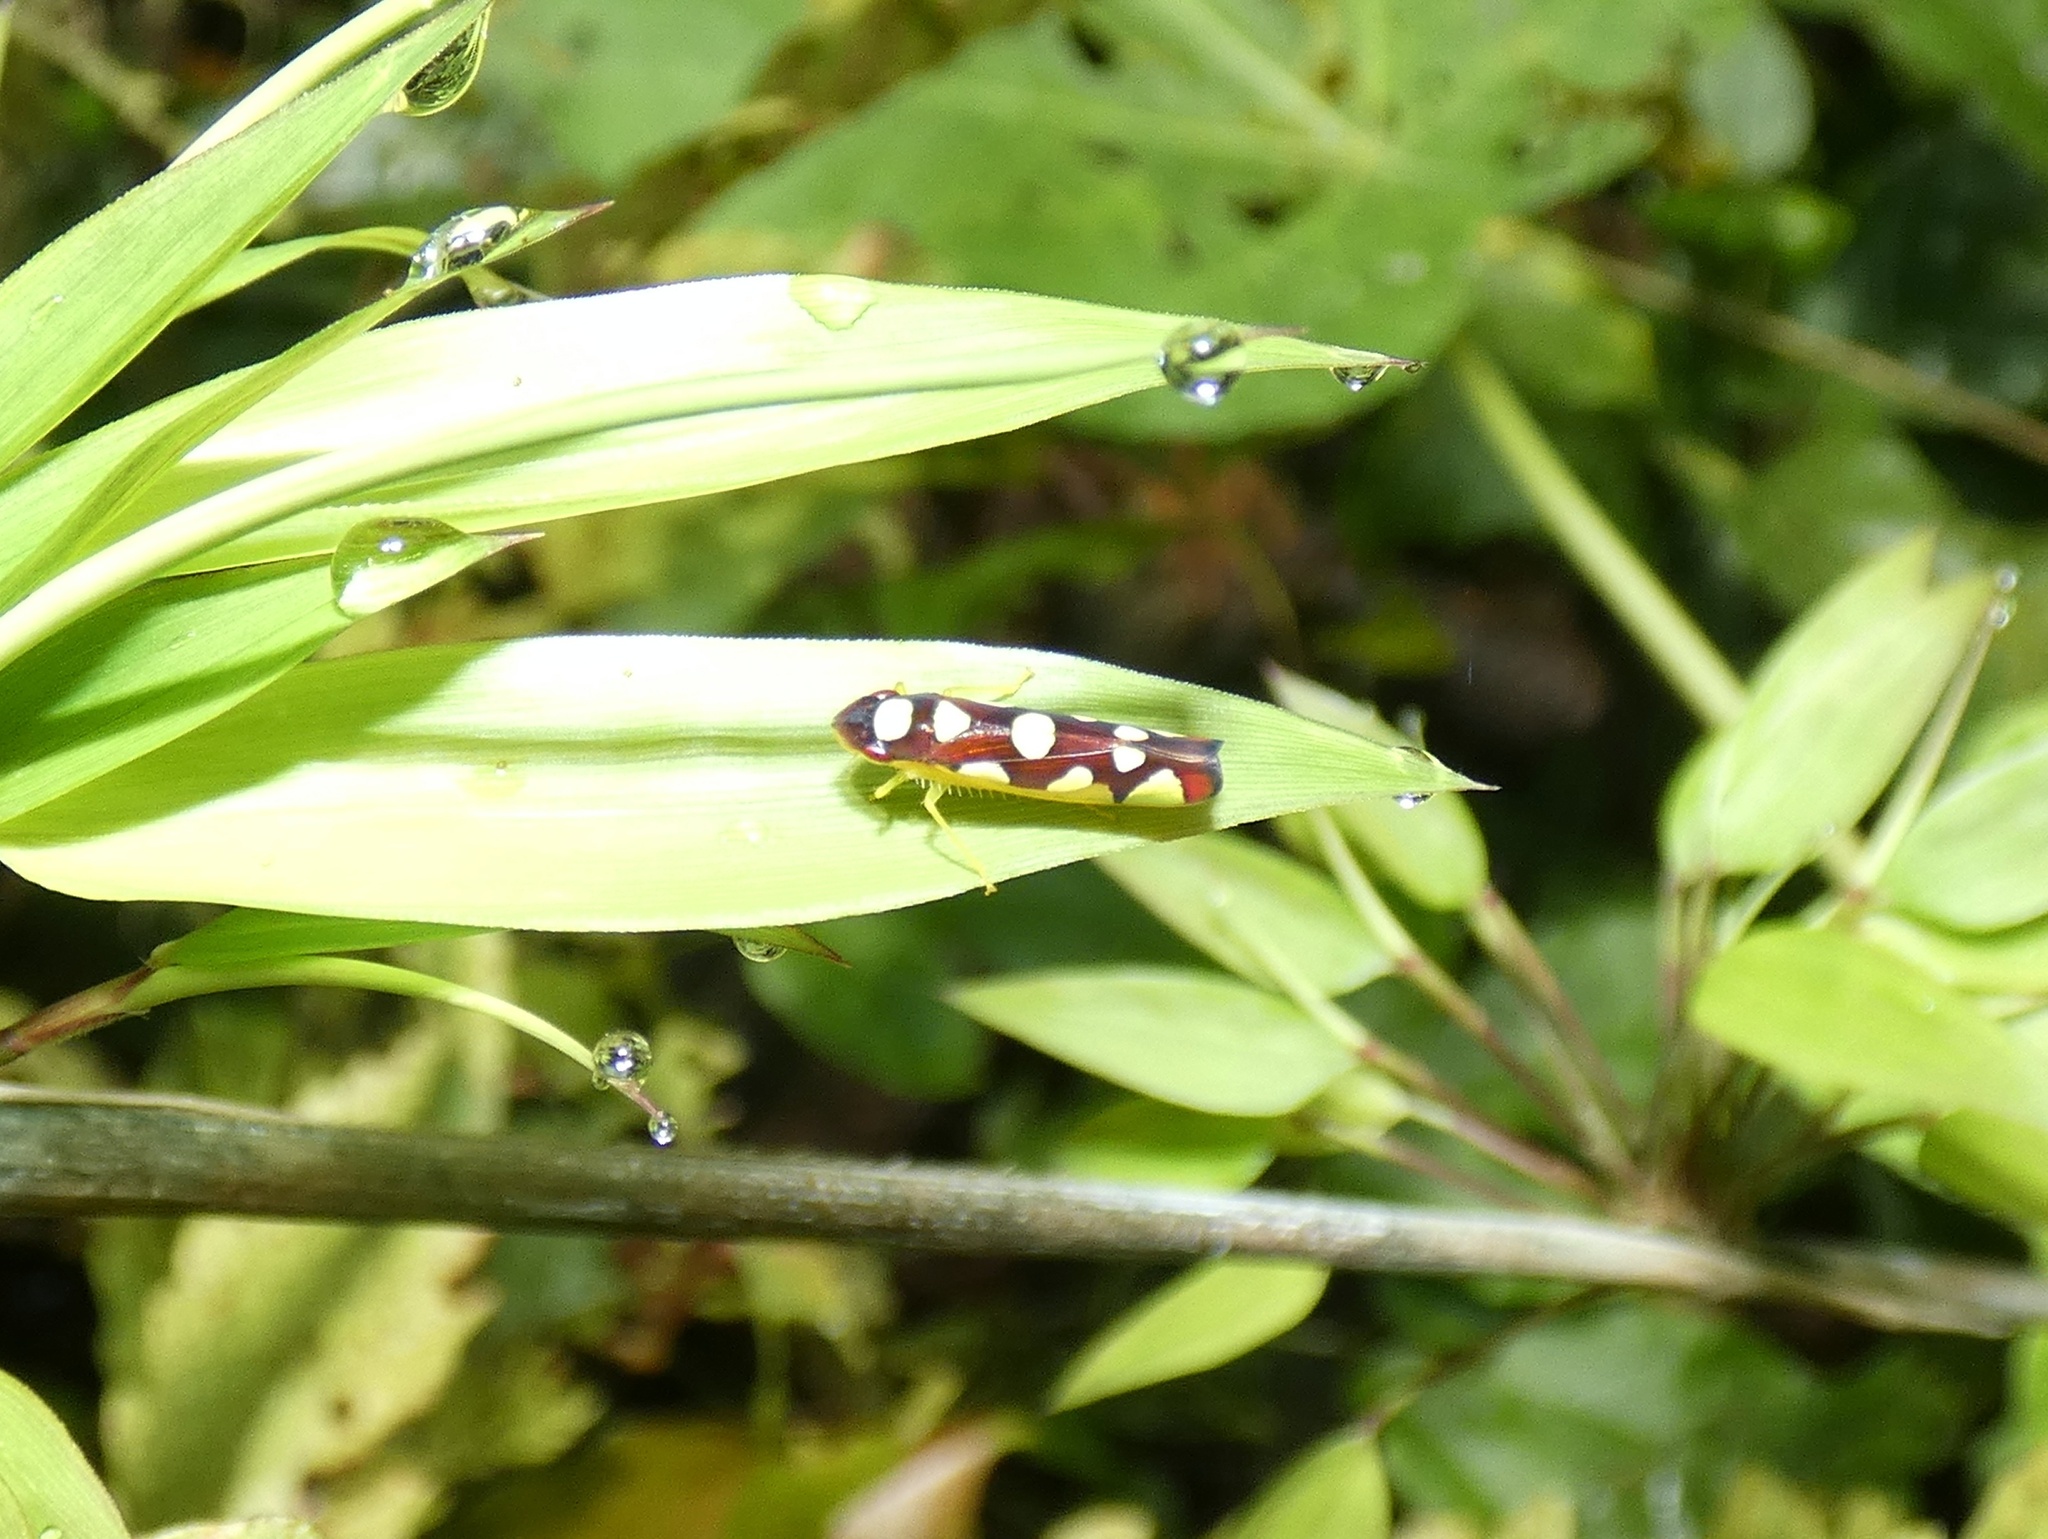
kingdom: Animalia
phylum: Arthropoda
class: Insecta
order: Hemiptera
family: Cicadellidae
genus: Baleja
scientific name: Baleja flavoguttata
